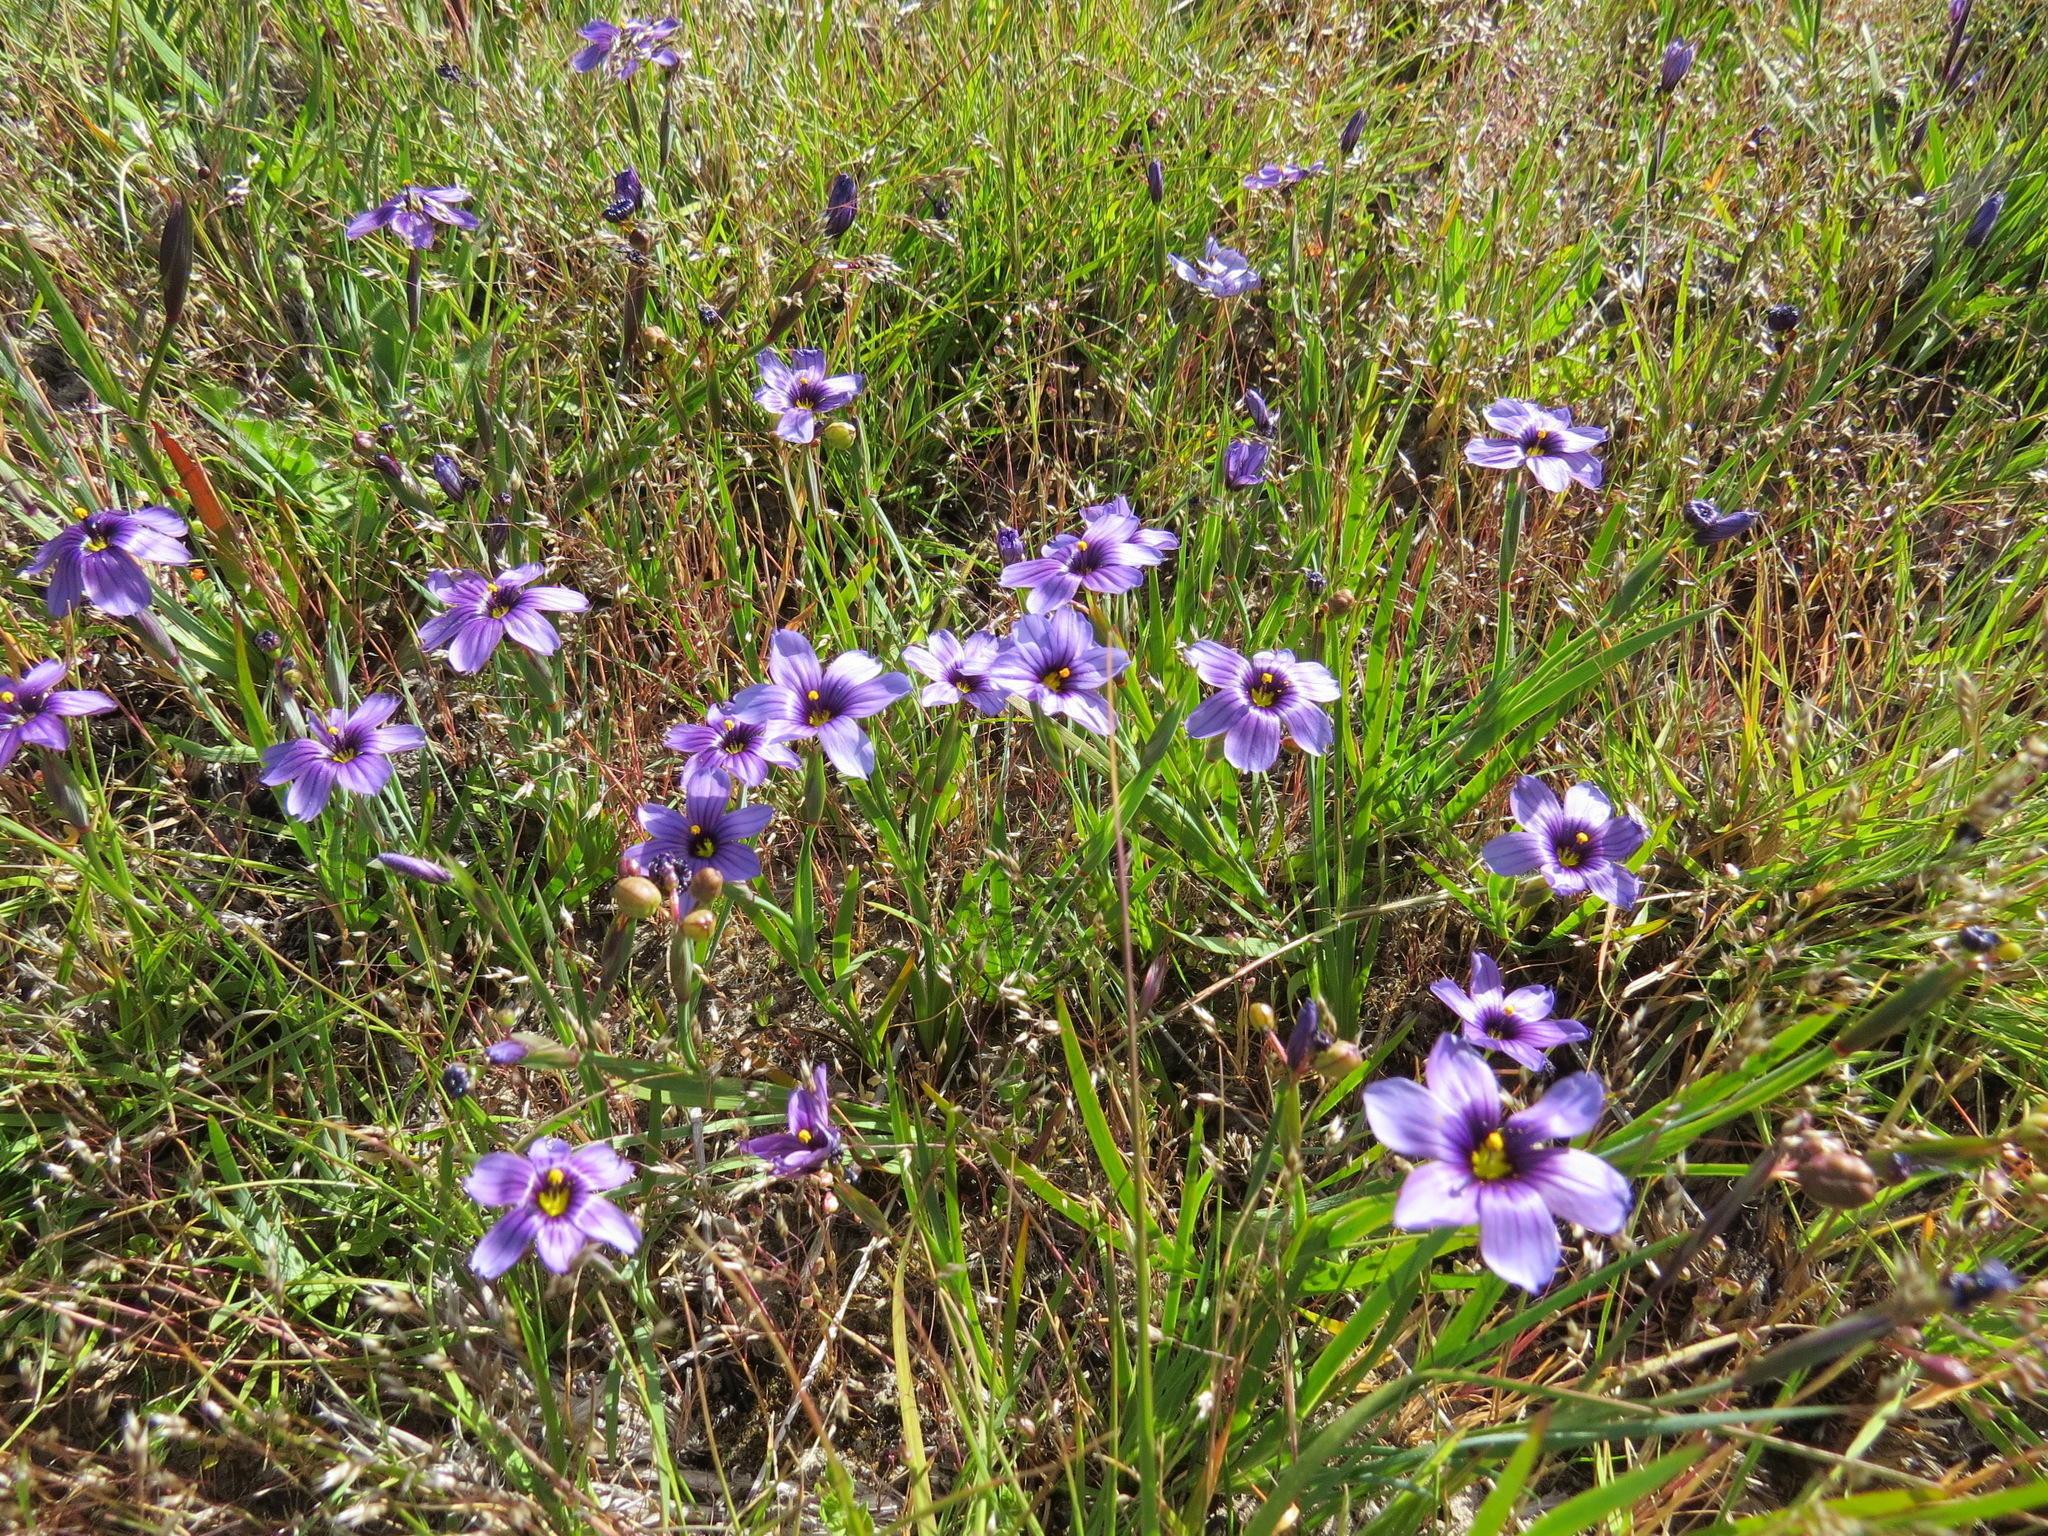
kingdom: Plantae
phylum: Tracheophyta
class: Liliopsida
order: Asparagales
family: Iridaceae
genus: Sisyrinchium
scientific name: Sisyrinchium bellum
